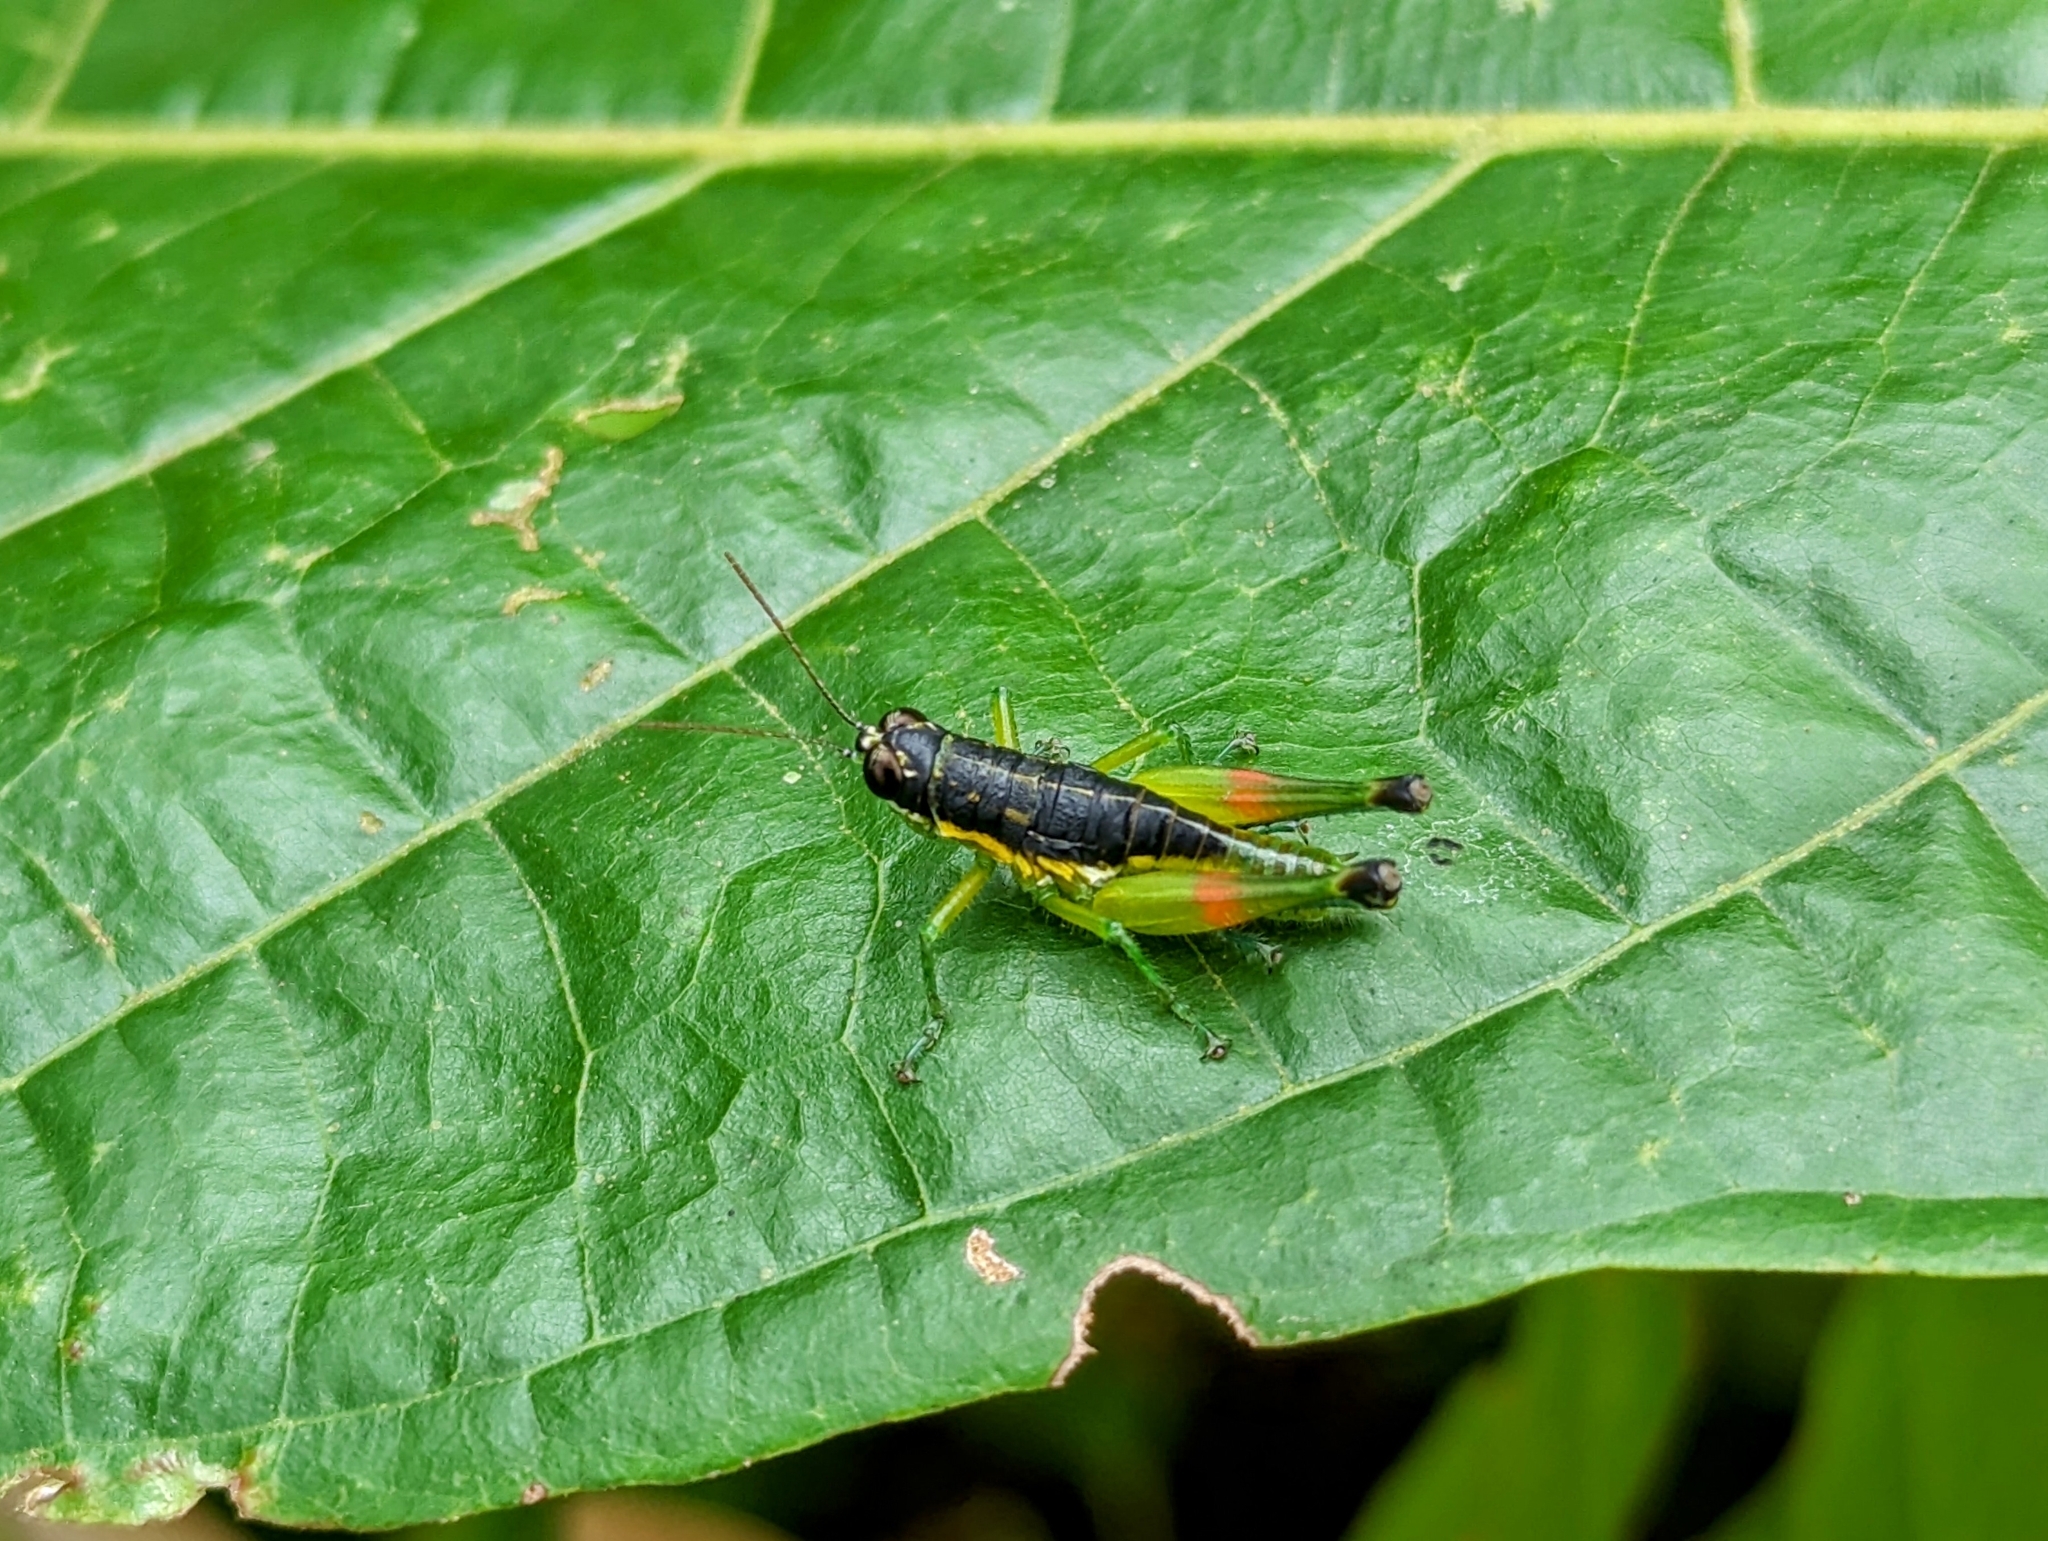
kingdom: Animalia
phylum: Arthropoda
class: Insecta
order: Orthoptera
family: Acrididae
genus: Liebermannacris
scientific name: Liebermannacris dorsualis
